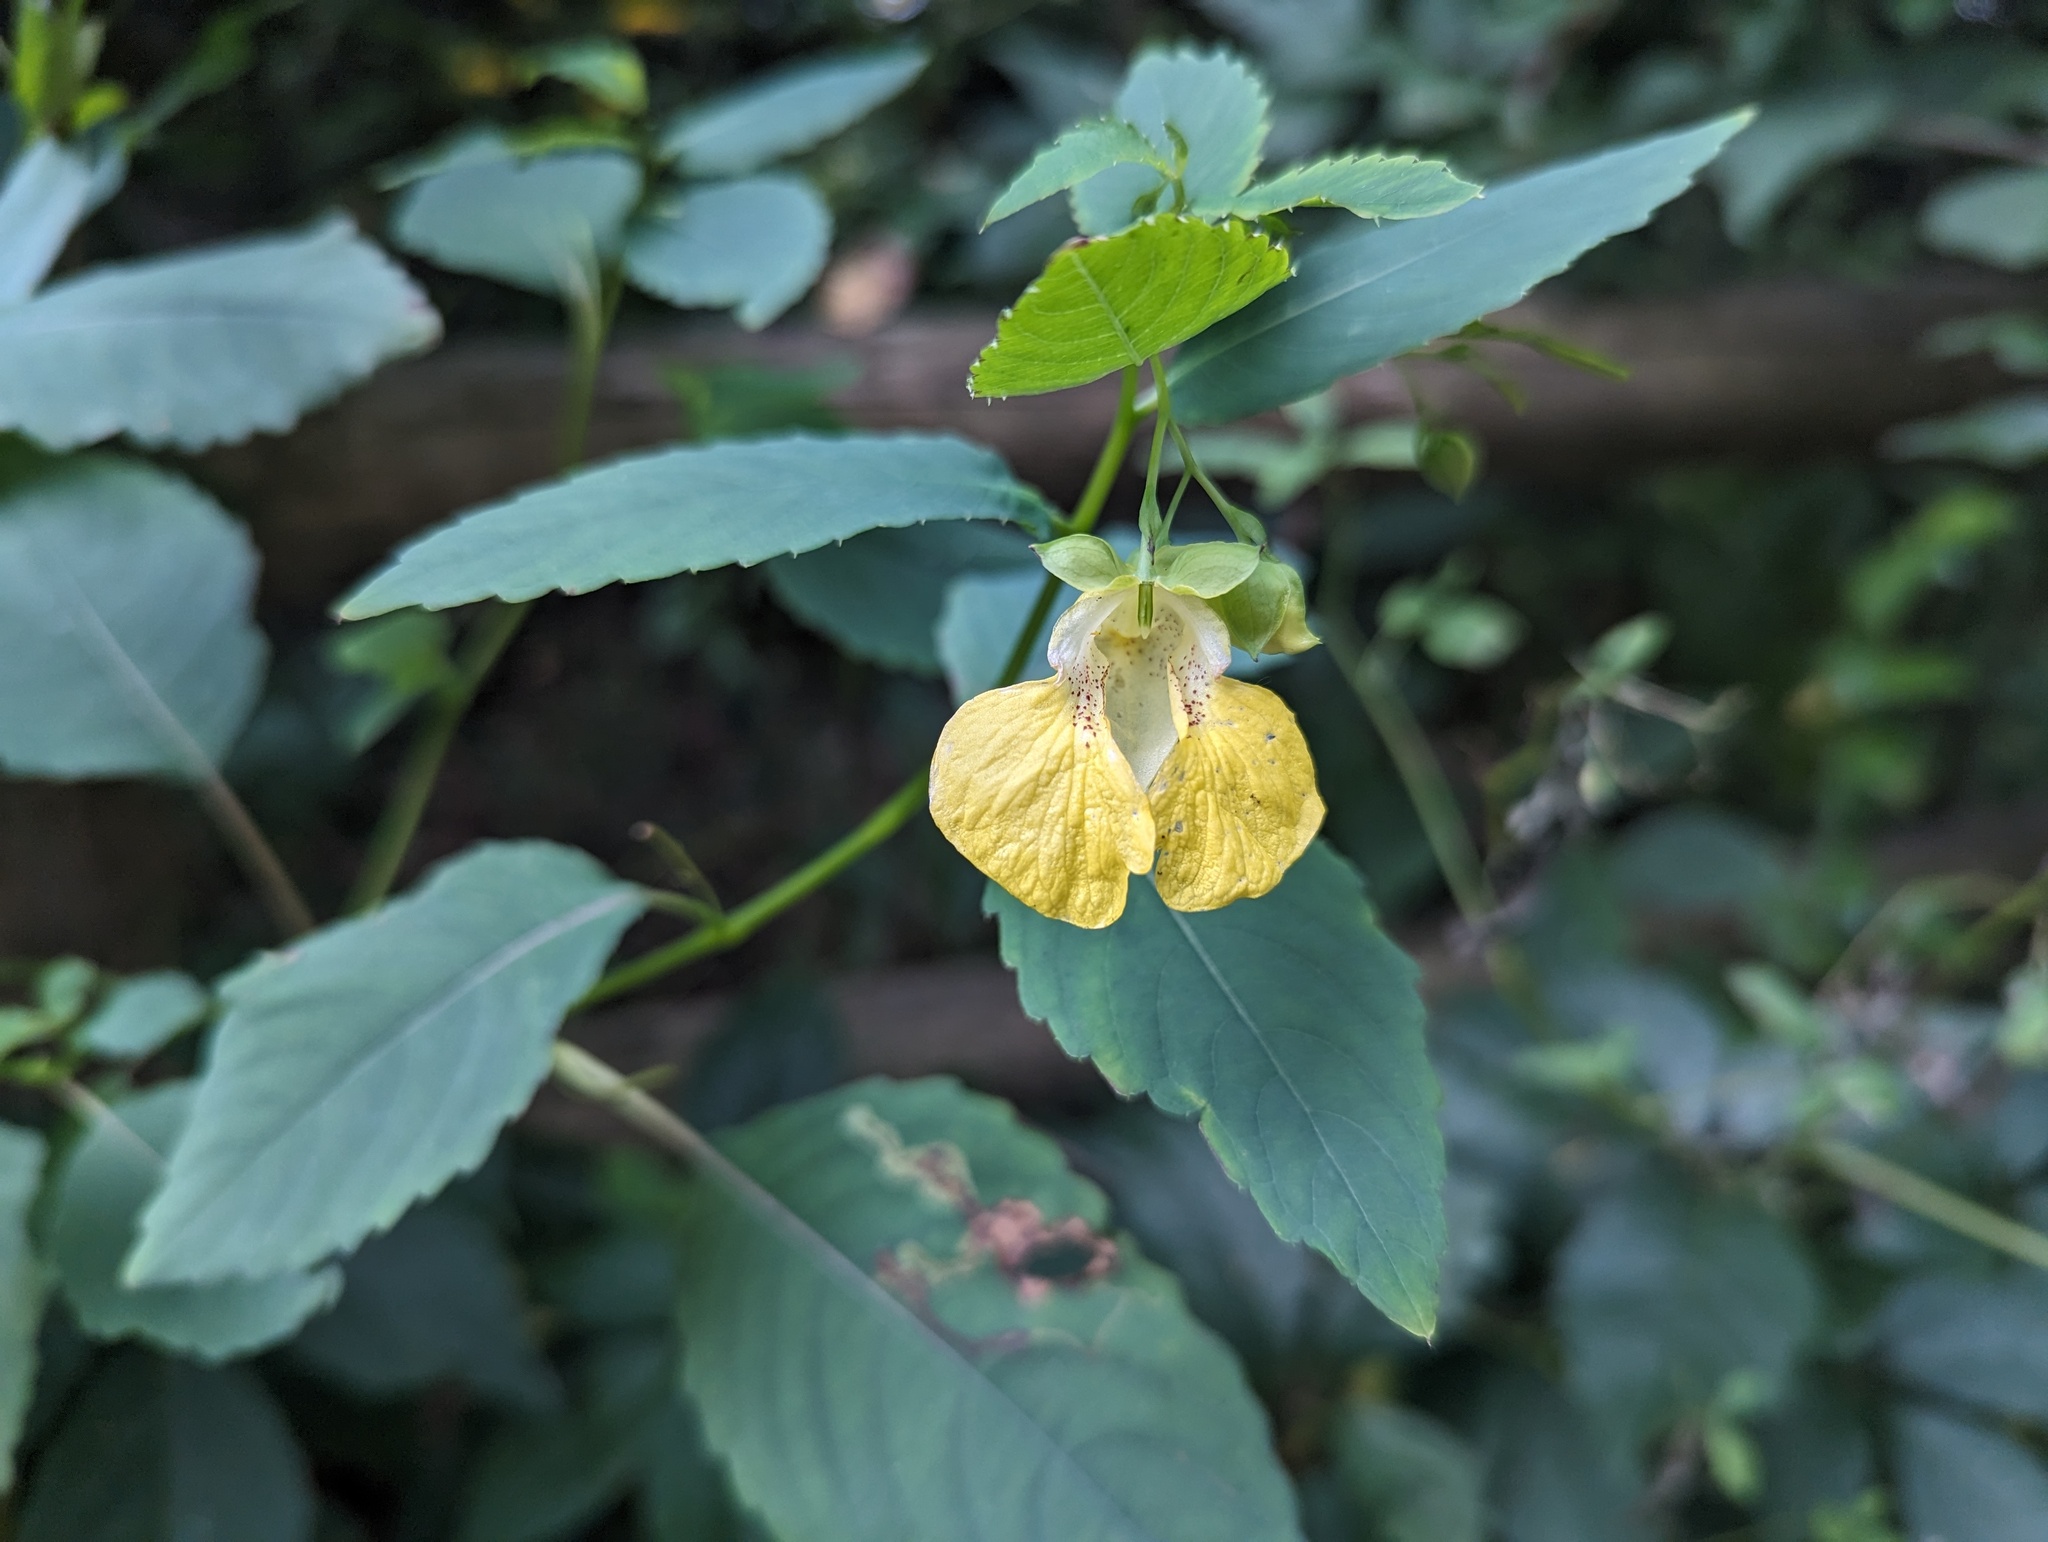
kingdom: Plantae
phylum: Tracheophyta
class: Magnoliopsida
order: Ericales
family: Balsaminaceae
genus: Impatiens
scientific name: Impatiens pallida
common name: Pale snapweed
